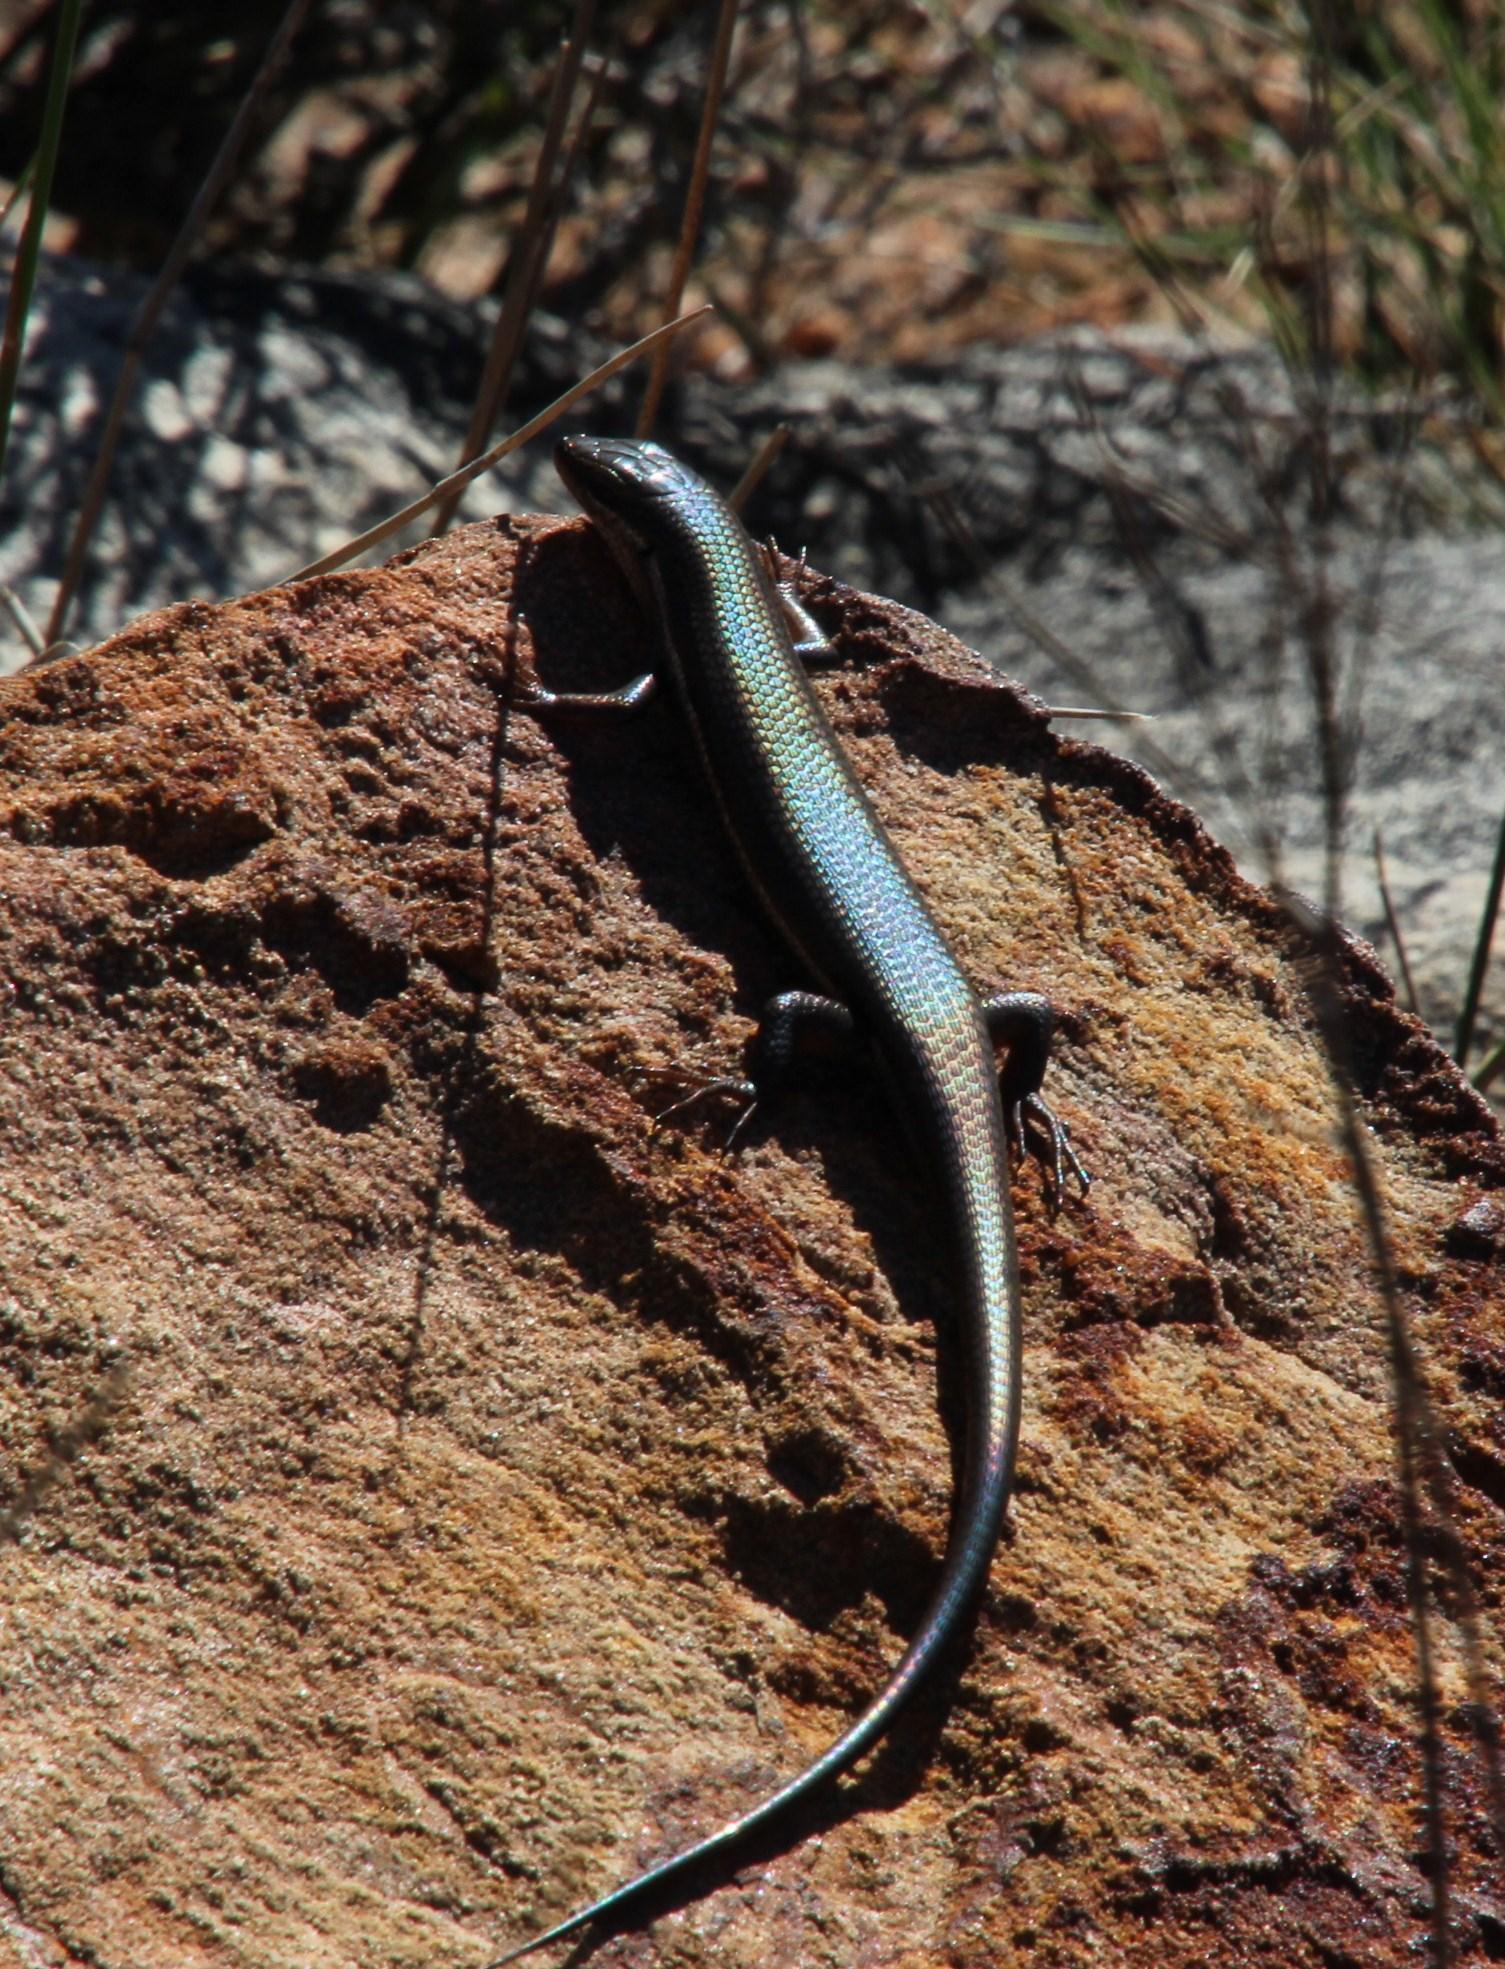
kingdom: Animalia
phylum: Chordata
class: Squamata
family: Scincidae
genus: Trachylepis
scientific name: Trachylepis homalocephala
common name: Red-sided skink
